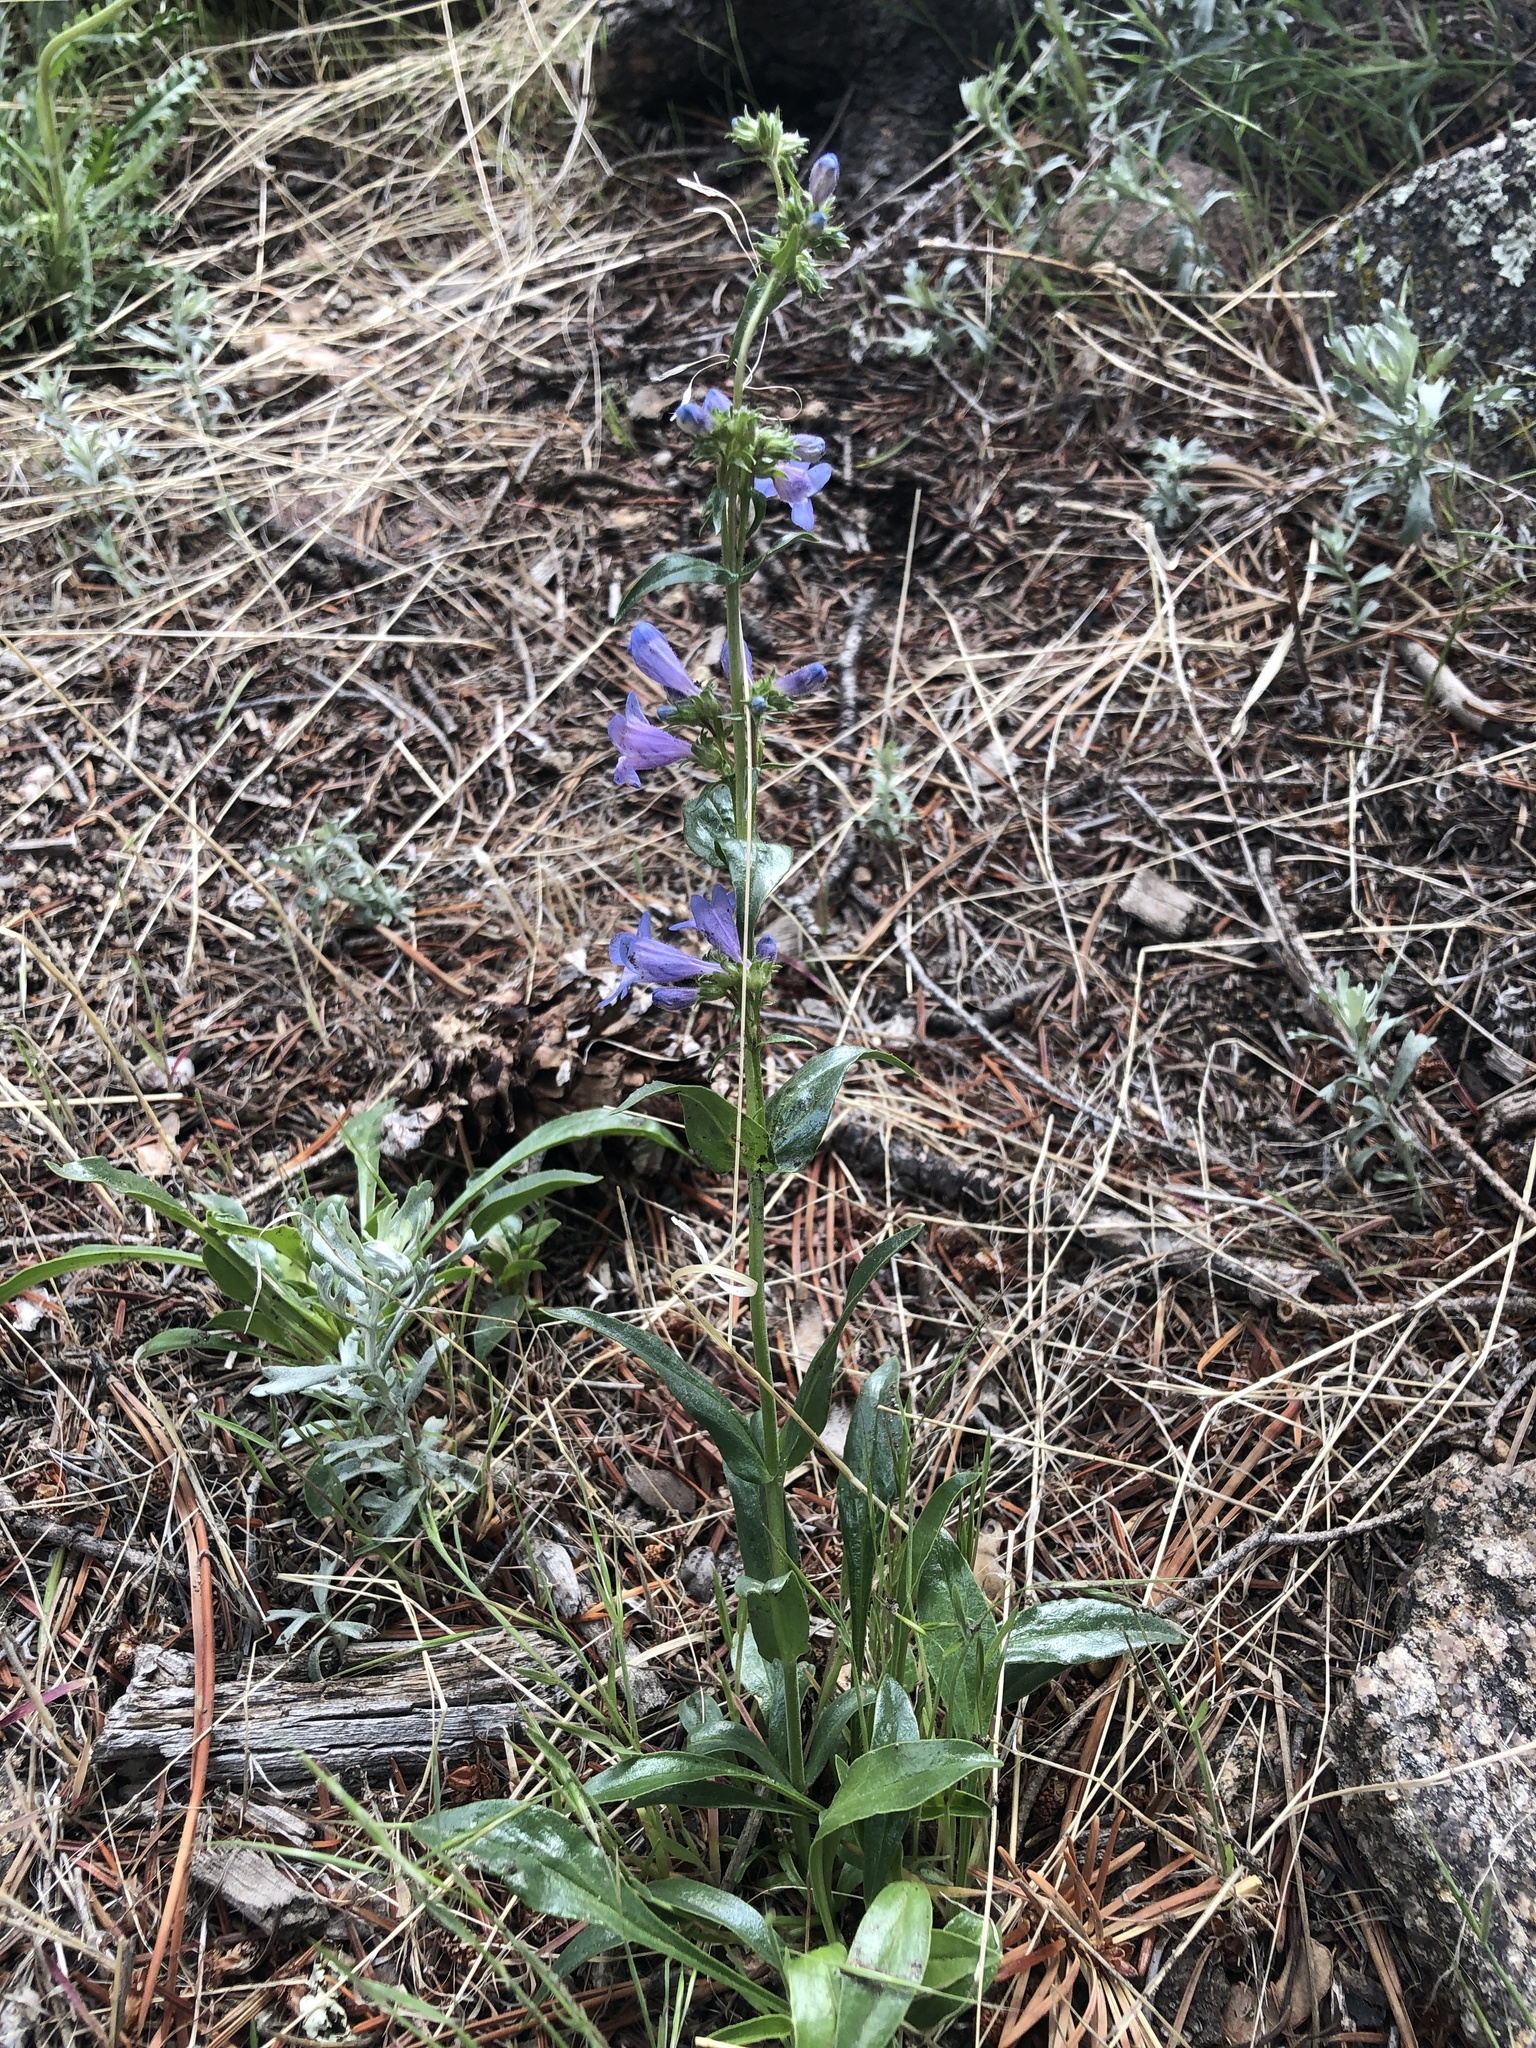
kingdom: Plantae
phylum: Tracheophyta
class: Magnoliopsida
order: Lamiales
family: Plantaginaceae
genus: Penstemon
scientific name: Penstemon virens
